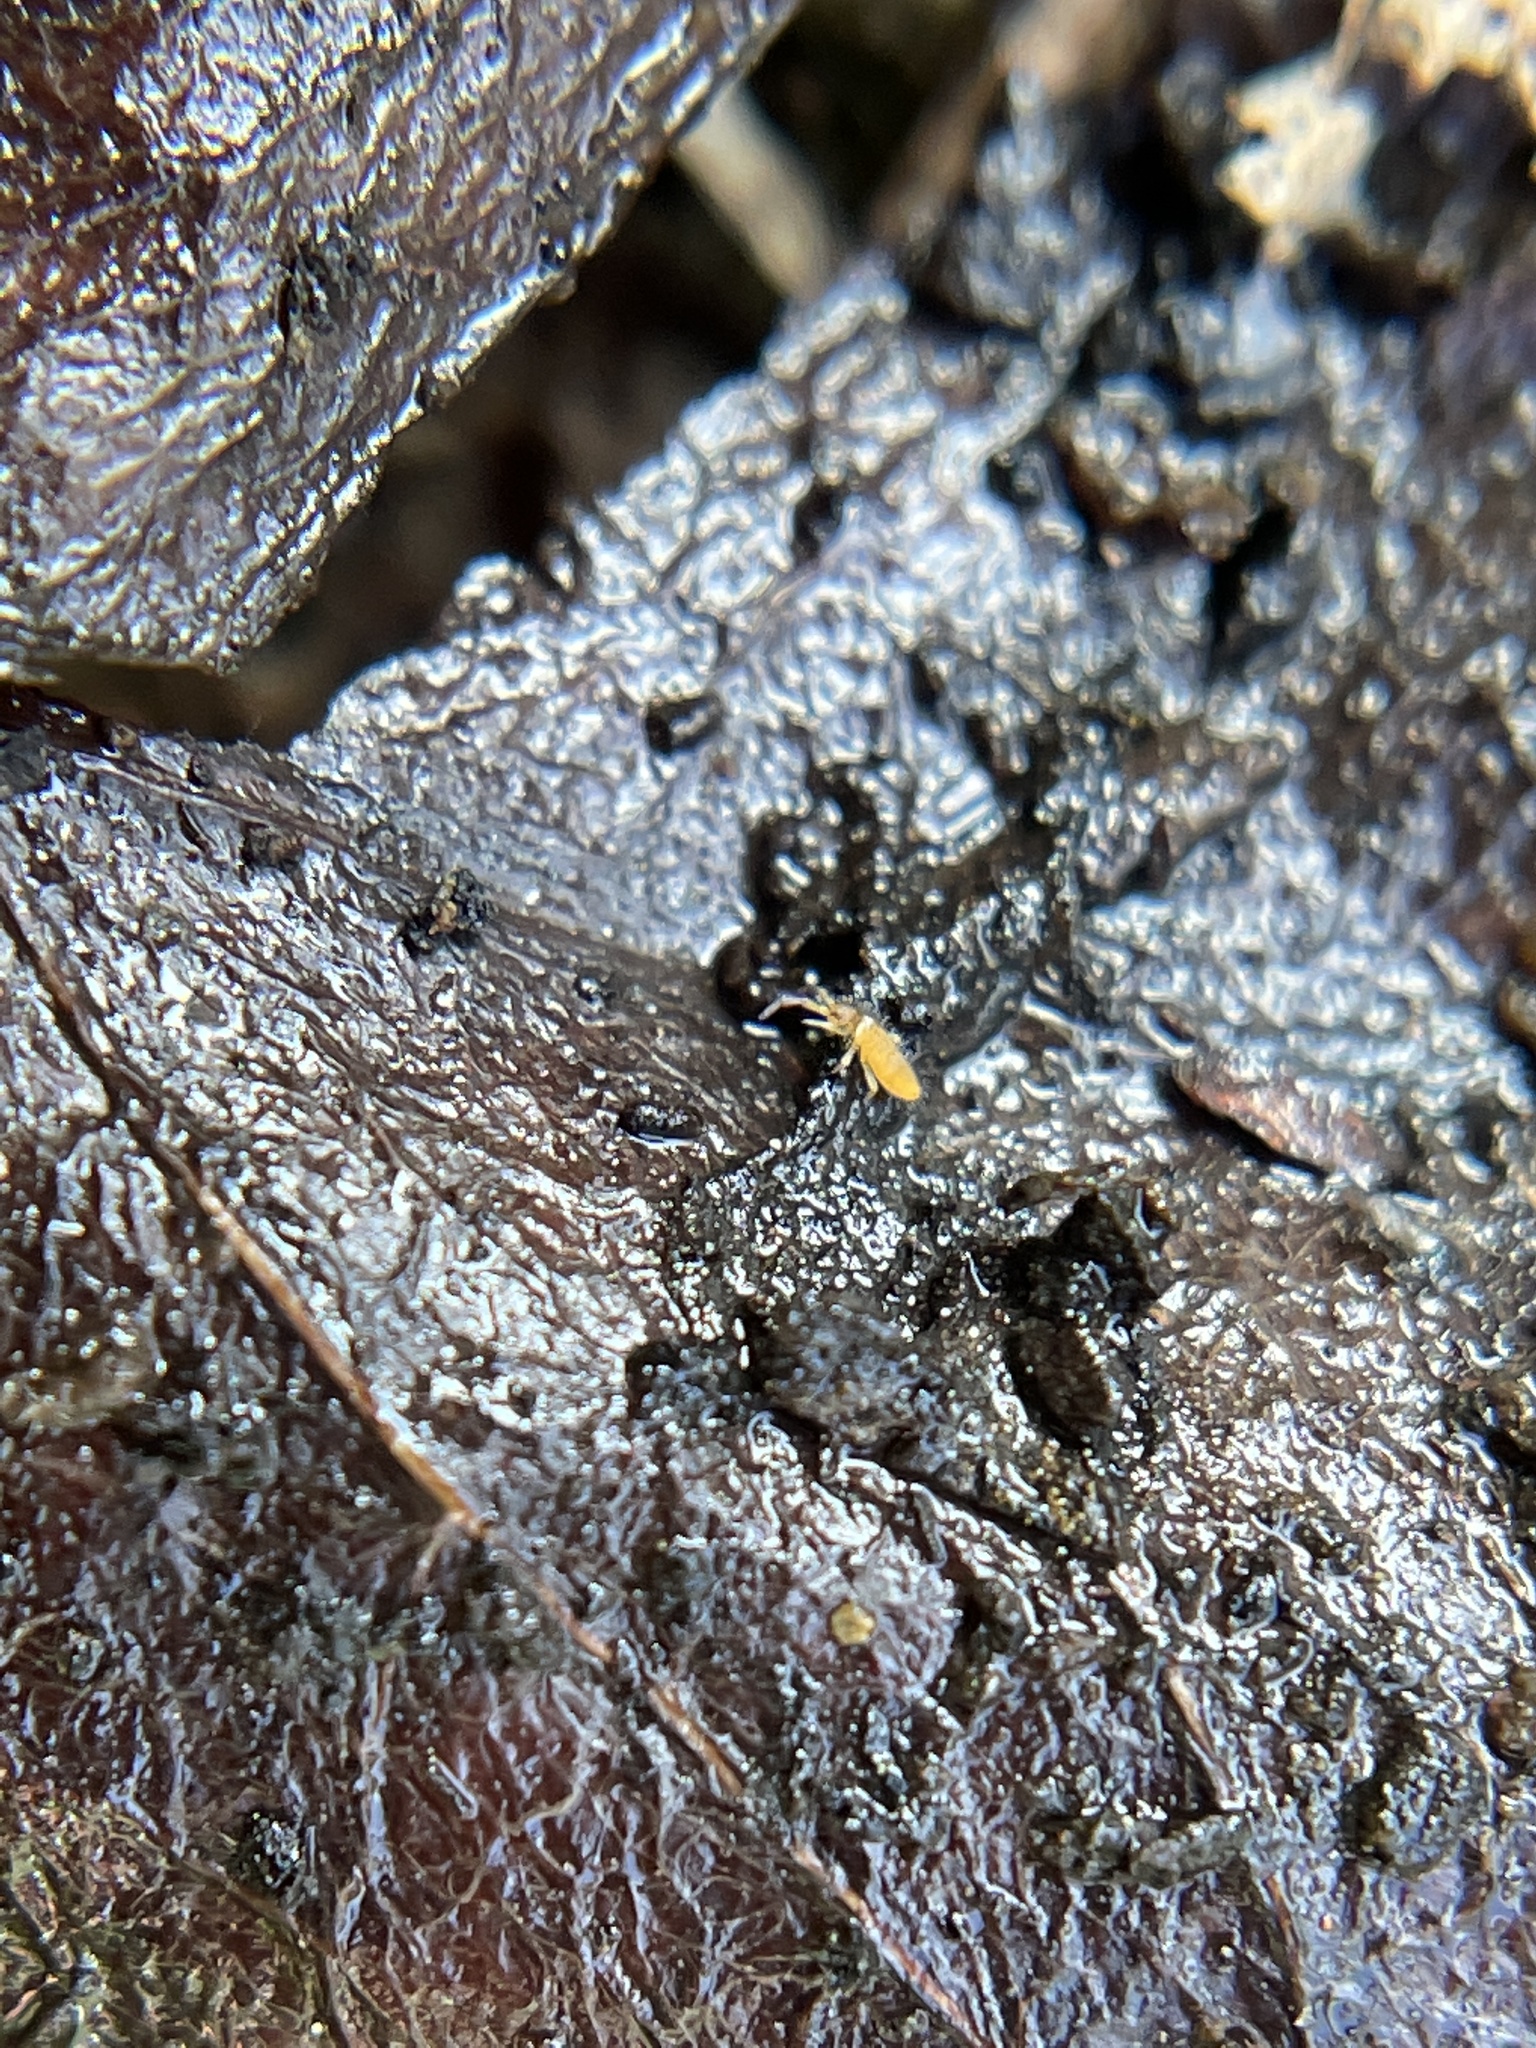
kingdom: Animalia
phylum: Arthropoda
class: Collembola
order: Entomobryomorpha
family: Entomobryidae
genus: Entomobrya
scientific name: Entomobrya atrocincta
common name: Springtail
